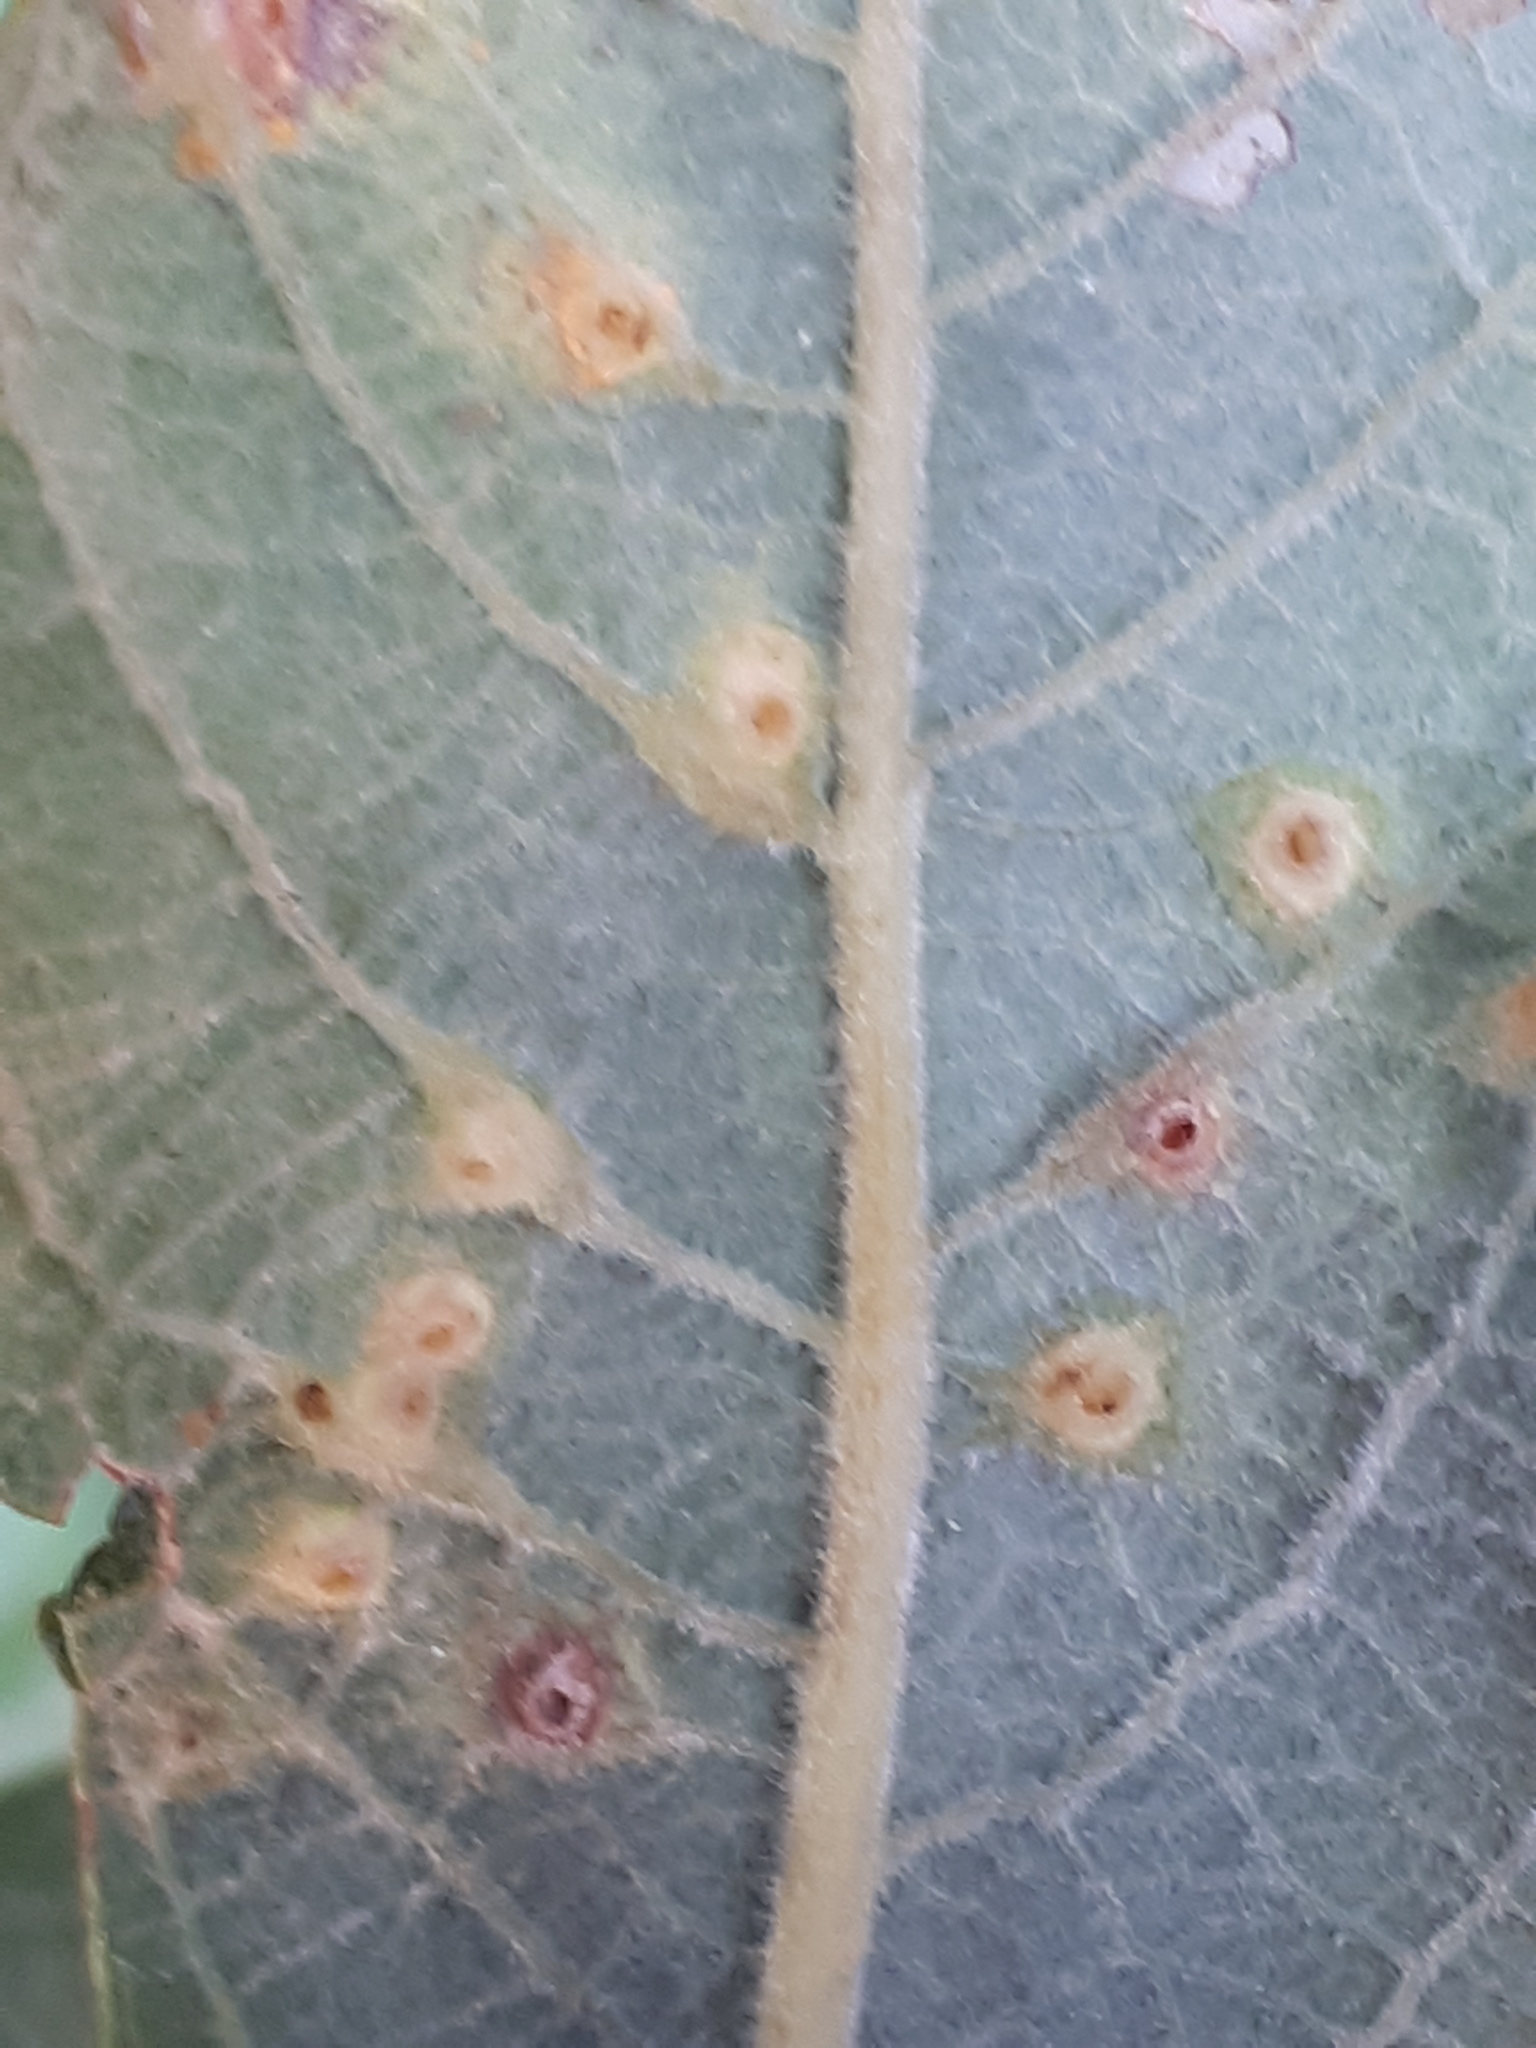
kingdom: Animalia
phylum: Arthropoda
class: Insecta
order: Diptera
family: Cecidomyiidae
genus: Iteomyia
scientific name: Iteomyia capreae
